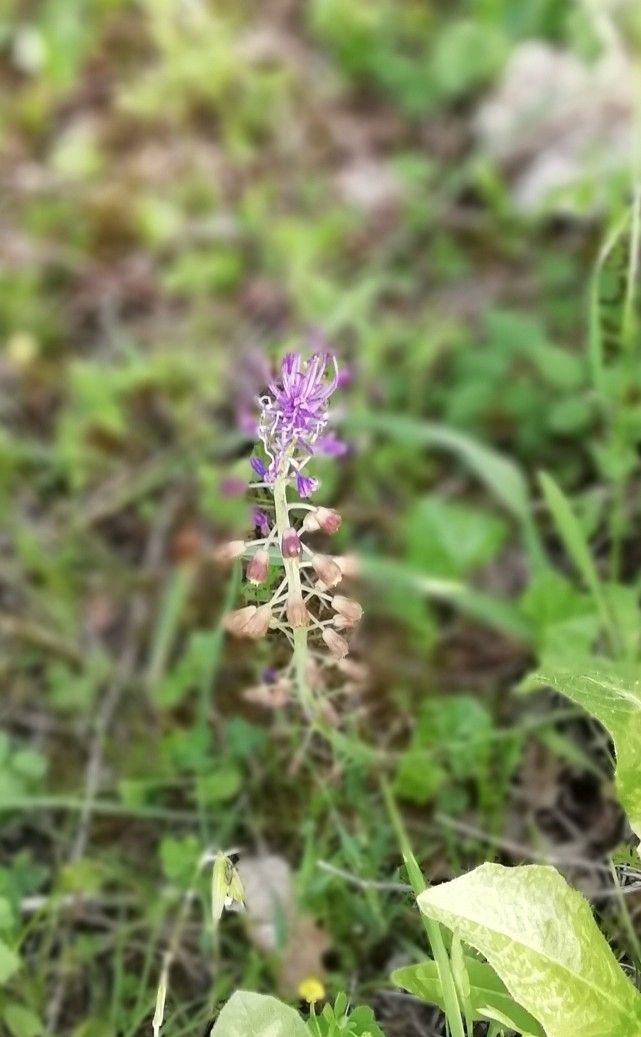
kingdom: Plantae
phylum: Tracheophyta
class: Liliopsida
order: Asparagales
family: Asparagaceae
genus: Muscari
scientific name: Muscari comosum
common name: Tassel hyacinth
